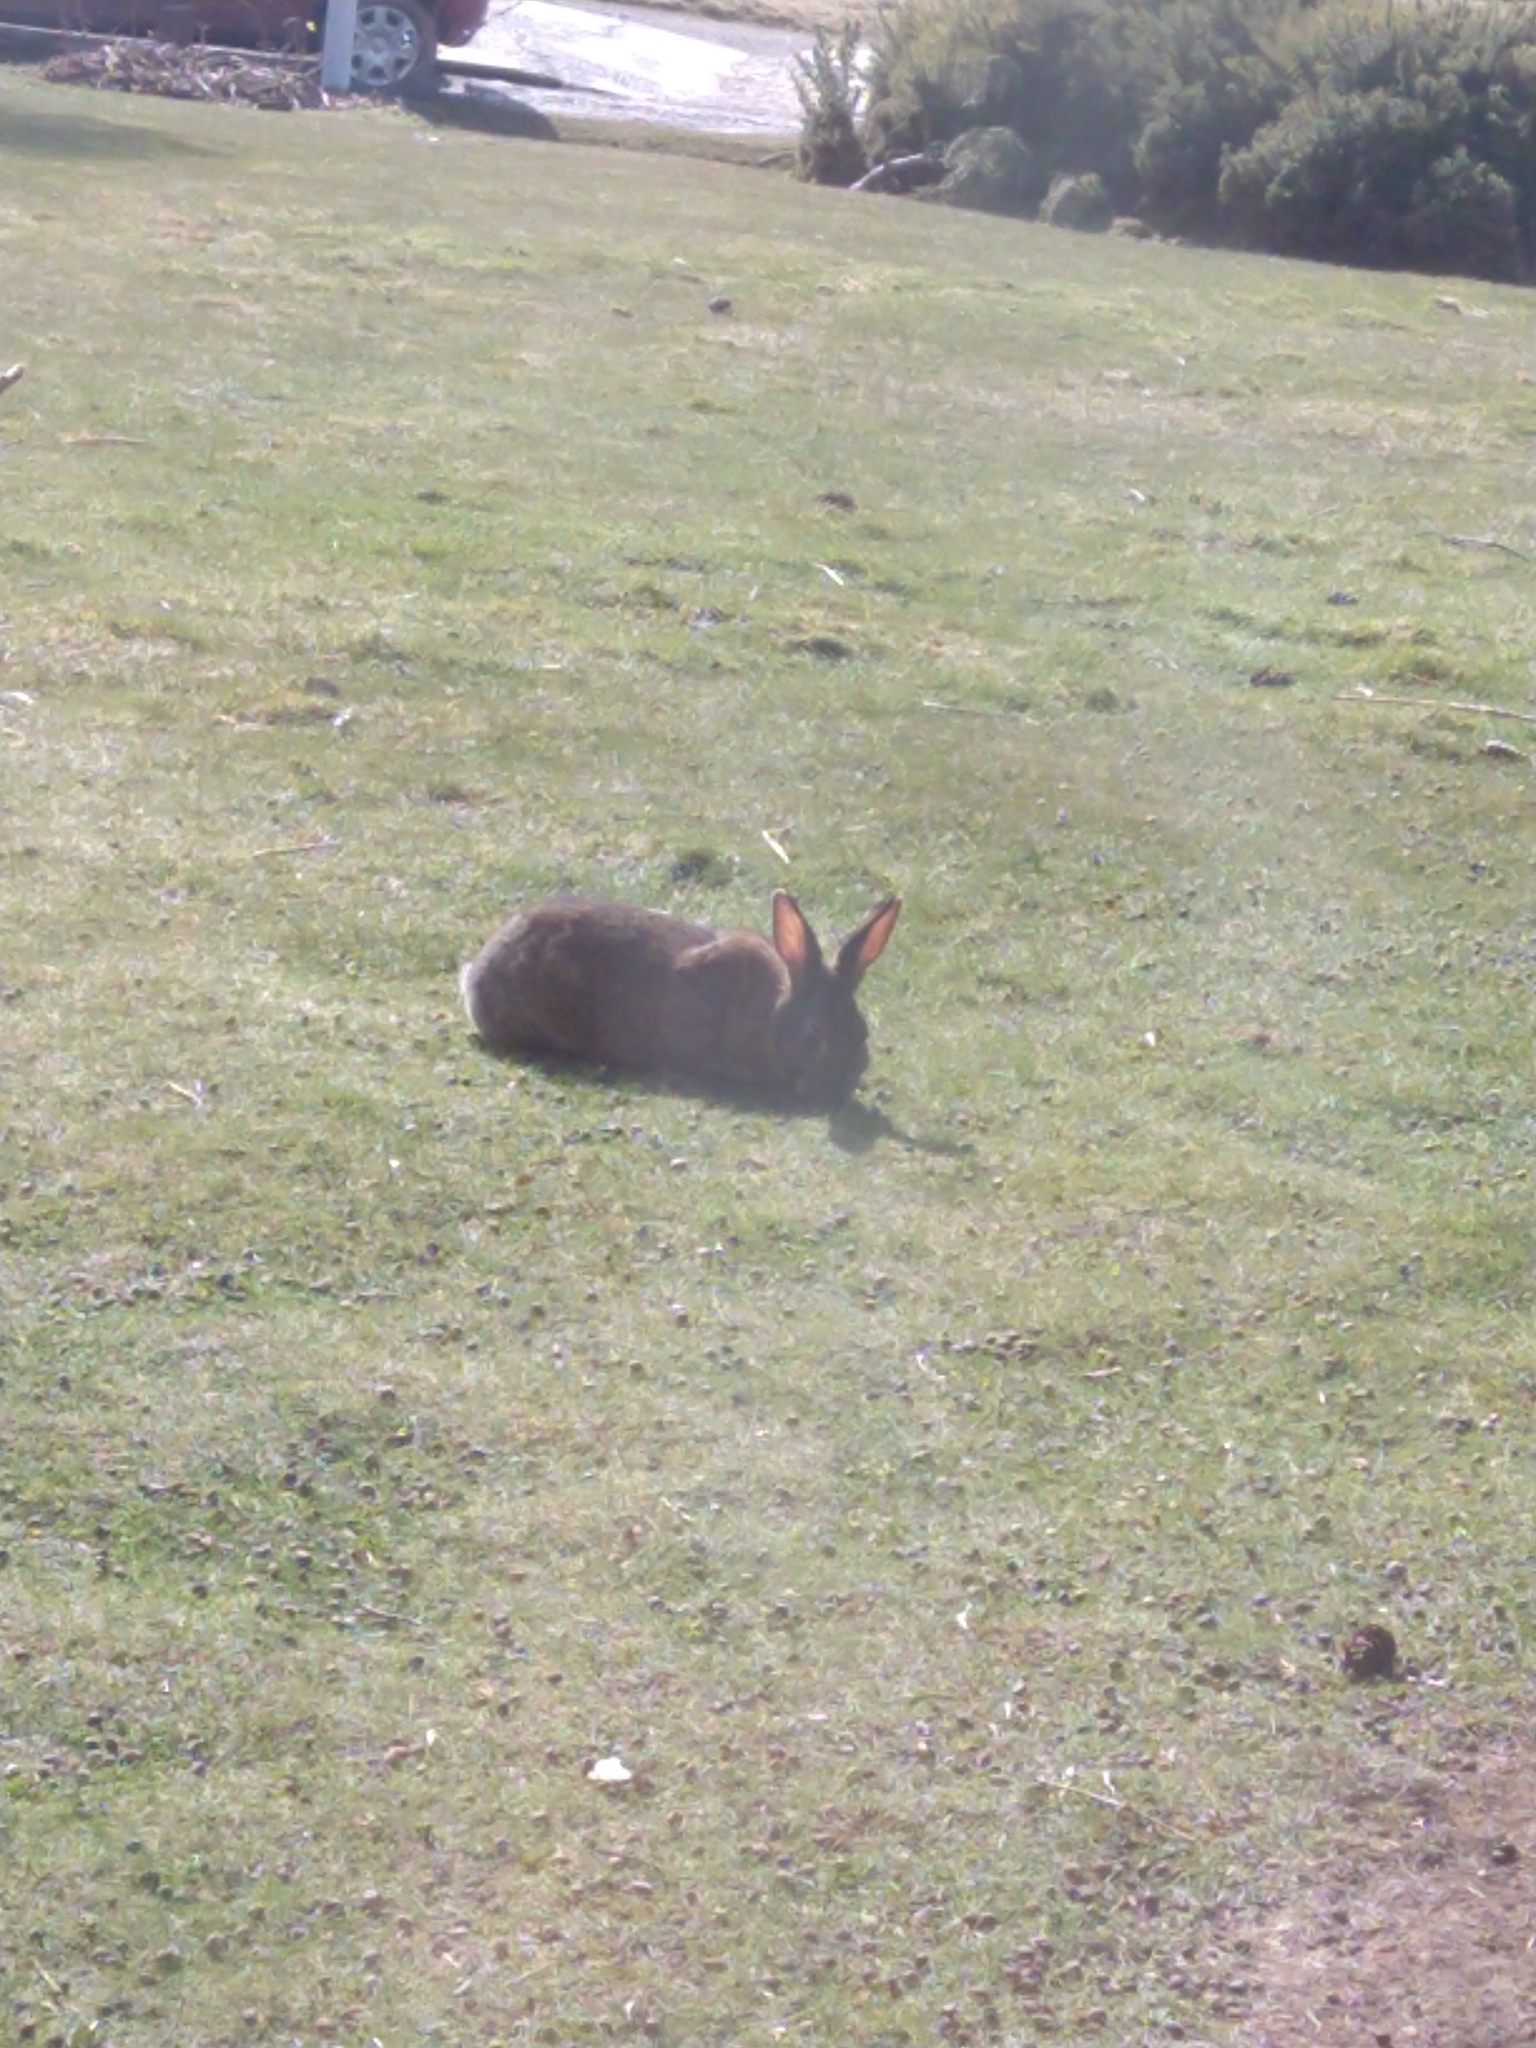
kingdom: Animalia
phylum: Chordata
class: Mammalia
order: Lagomorpha
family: Leporidae
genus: Oryctolagus
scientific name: Oryctolagus cuniculus
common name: European rabbit
